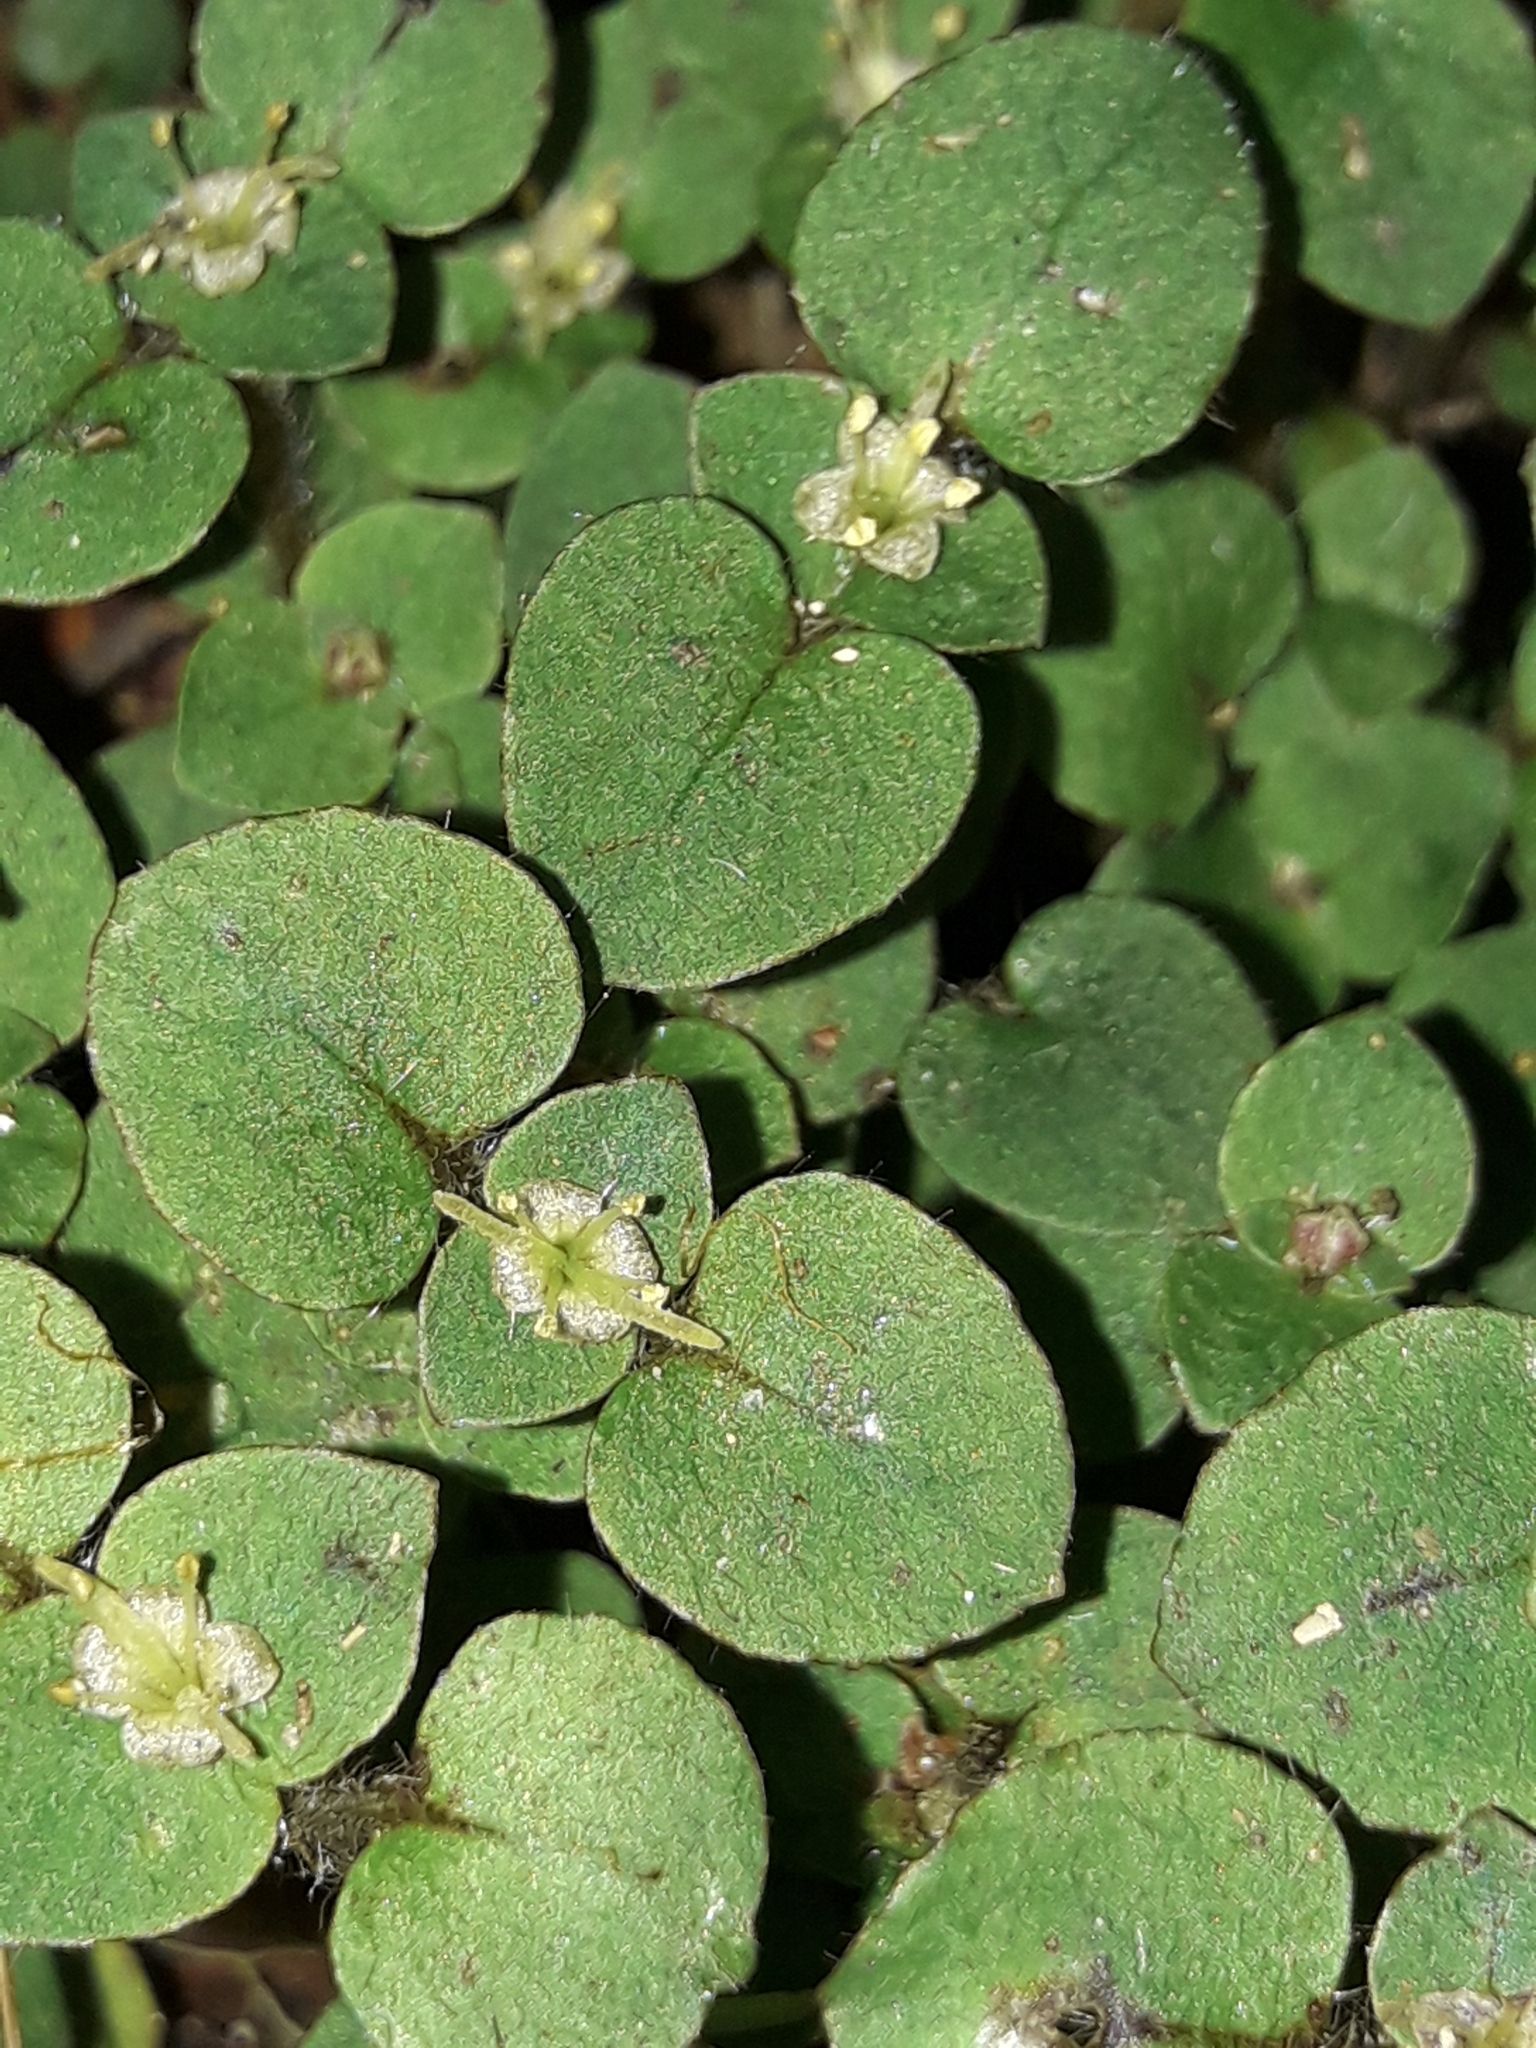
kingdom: Plantae
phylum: Tracheophyta
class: Magnoliopsida
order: Gentianales
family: Rubiaceae
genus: Nertera
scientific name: Nertera villosa
